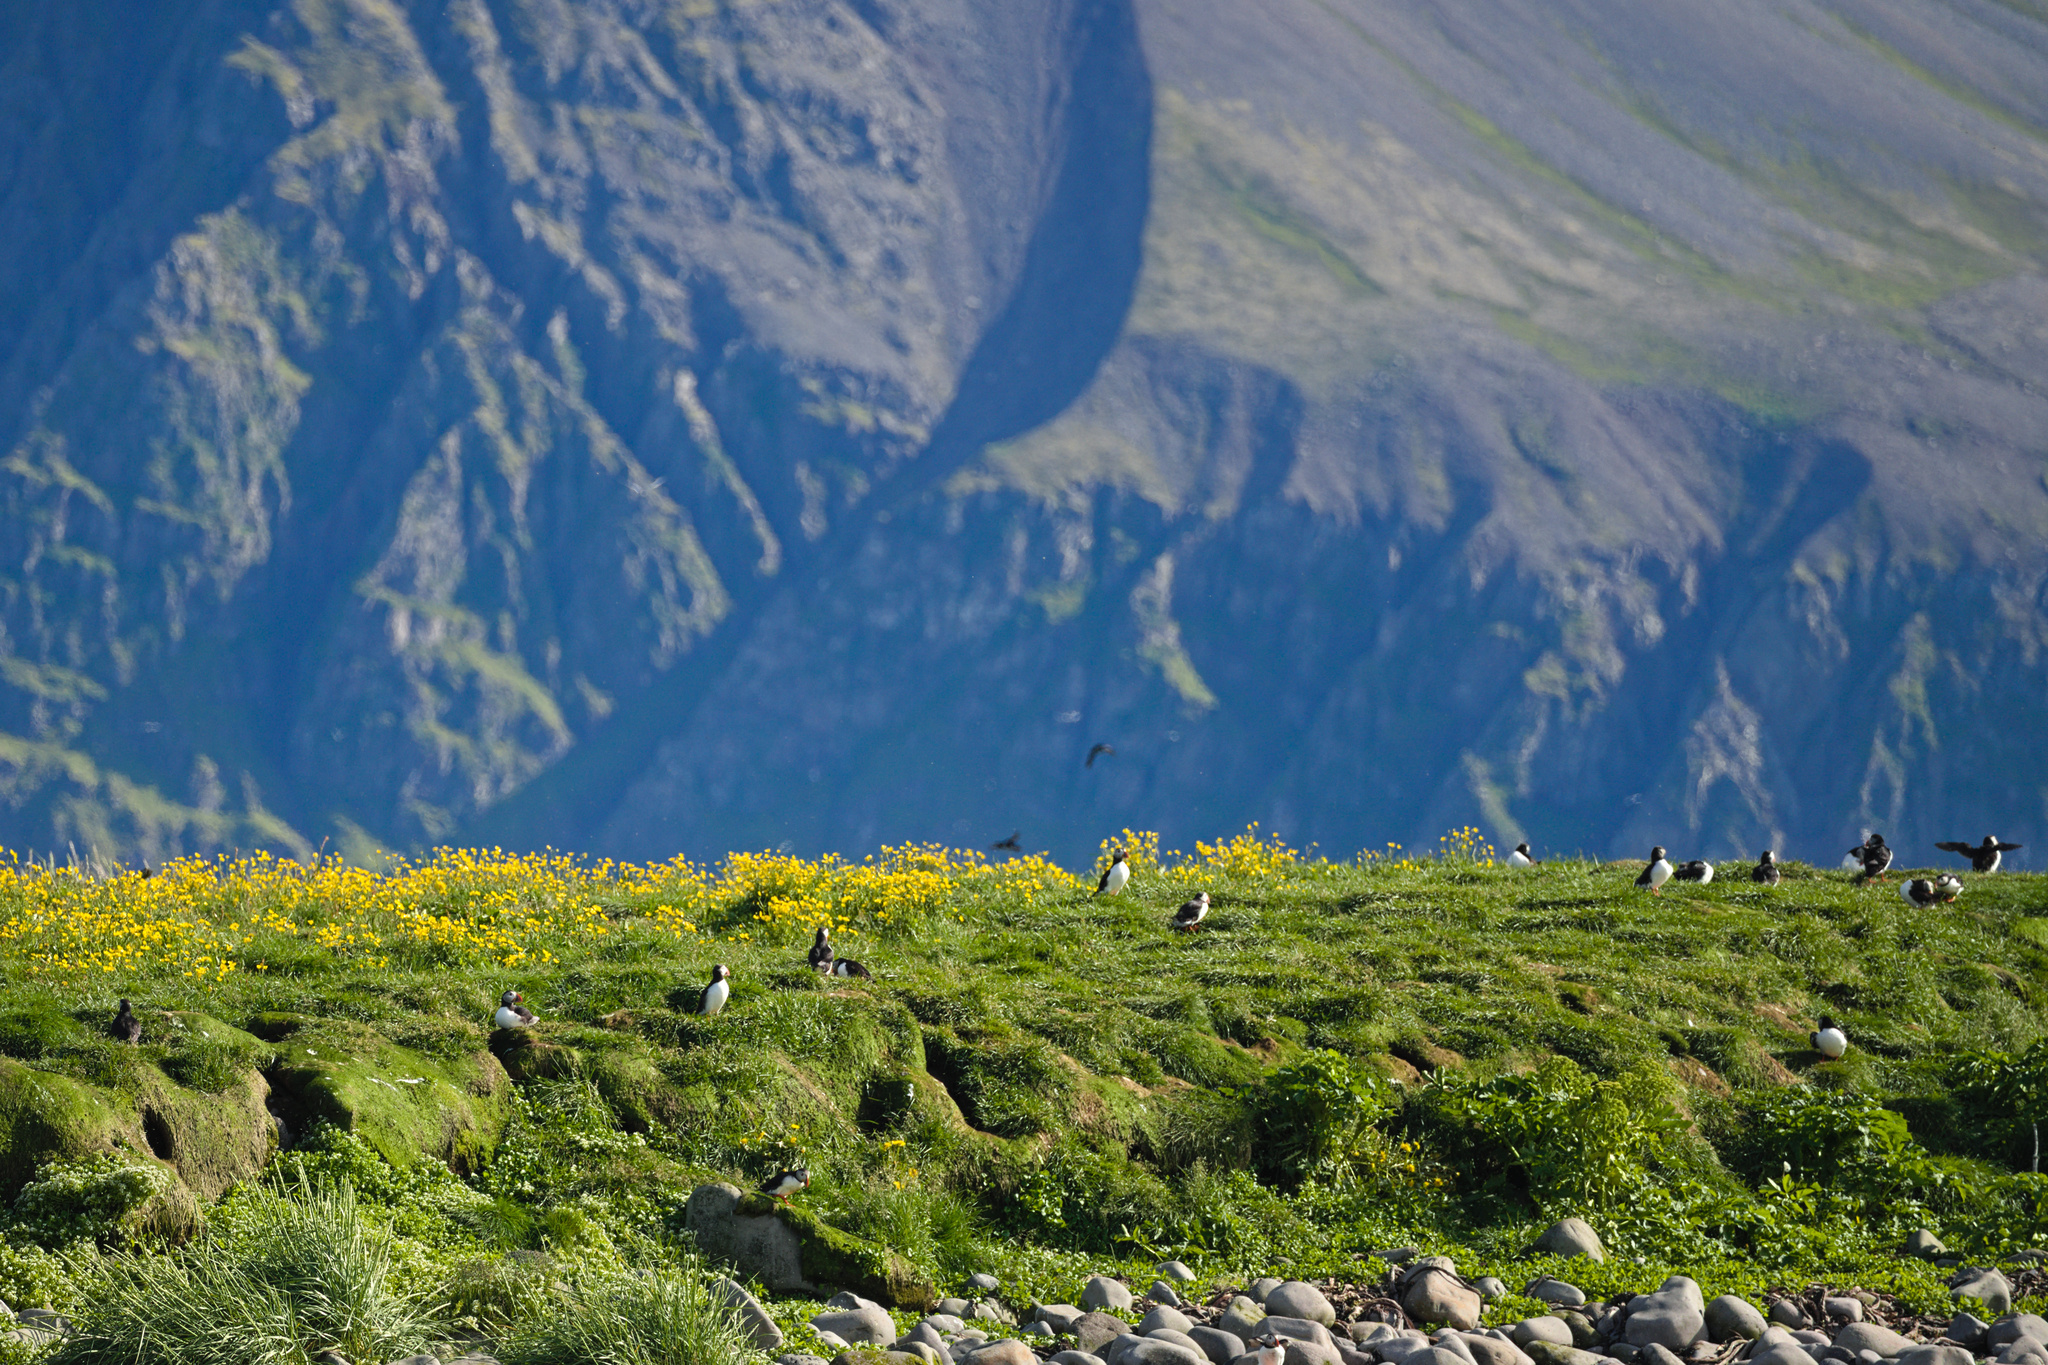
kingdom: Animalia
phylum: Chordata
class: Aves
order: Charadriiformes
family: Alcidae
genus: Fratercula
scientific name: Fratercula arctica
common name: Atlantic puffin
